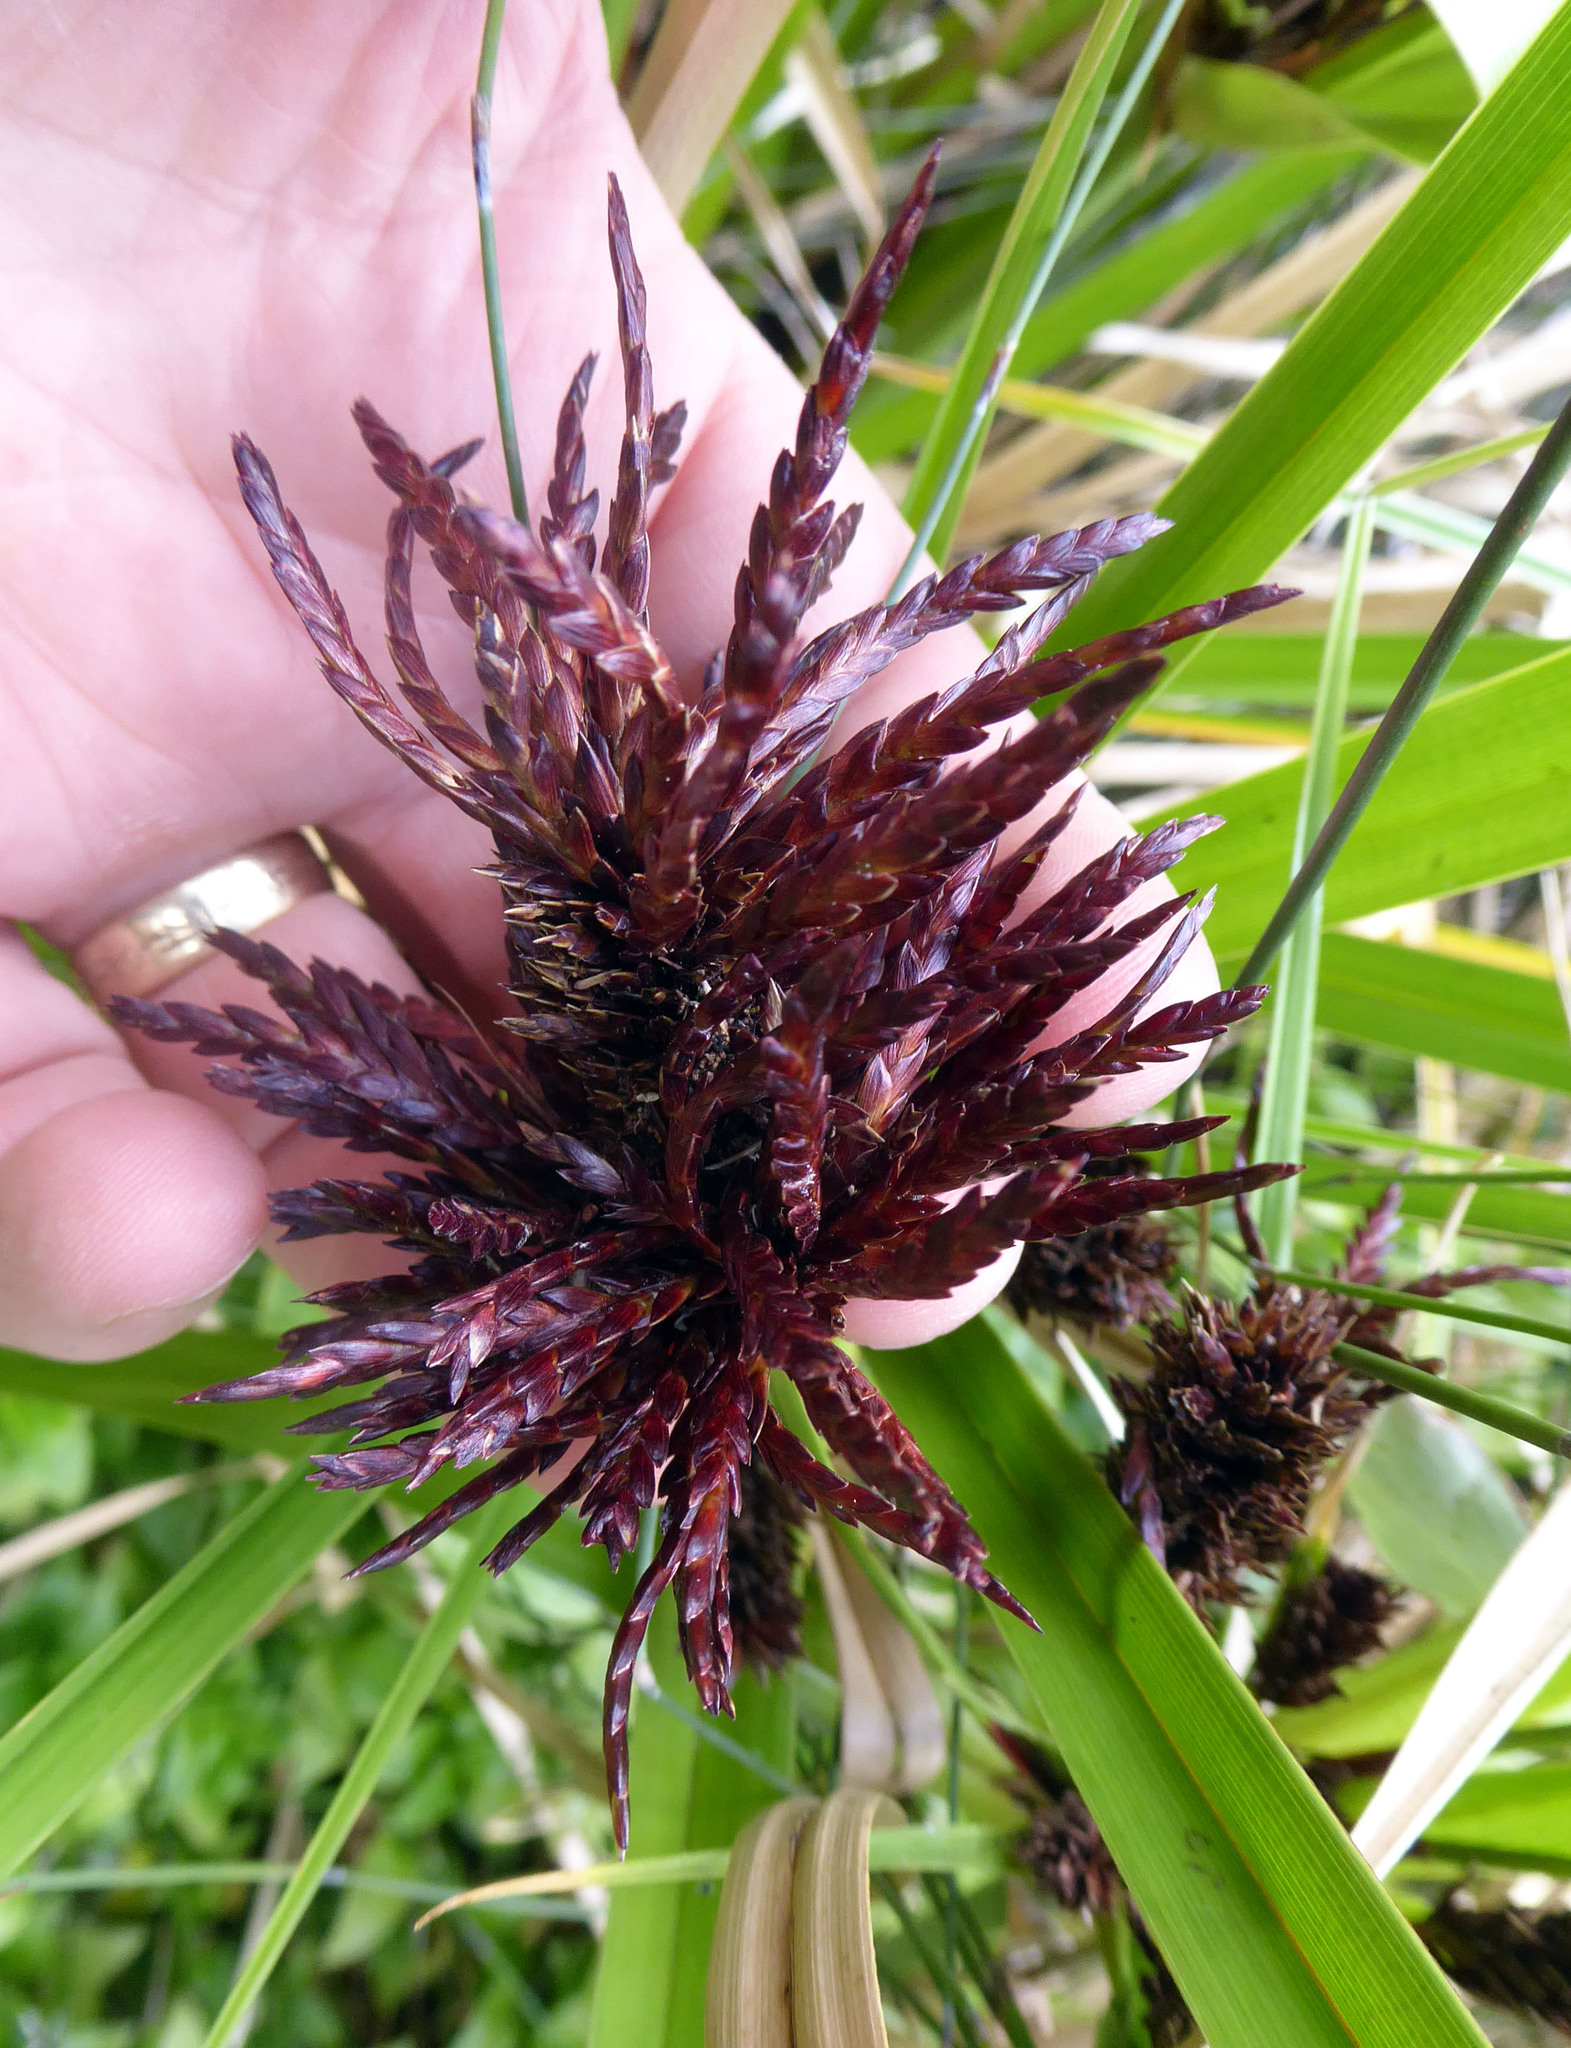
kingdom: Fungi
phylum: Basidiomycota
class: Microbotryomycetes
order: Microbotryales
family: Microbotryaceae
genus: Bauerago
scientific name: Bauerago gardneri
